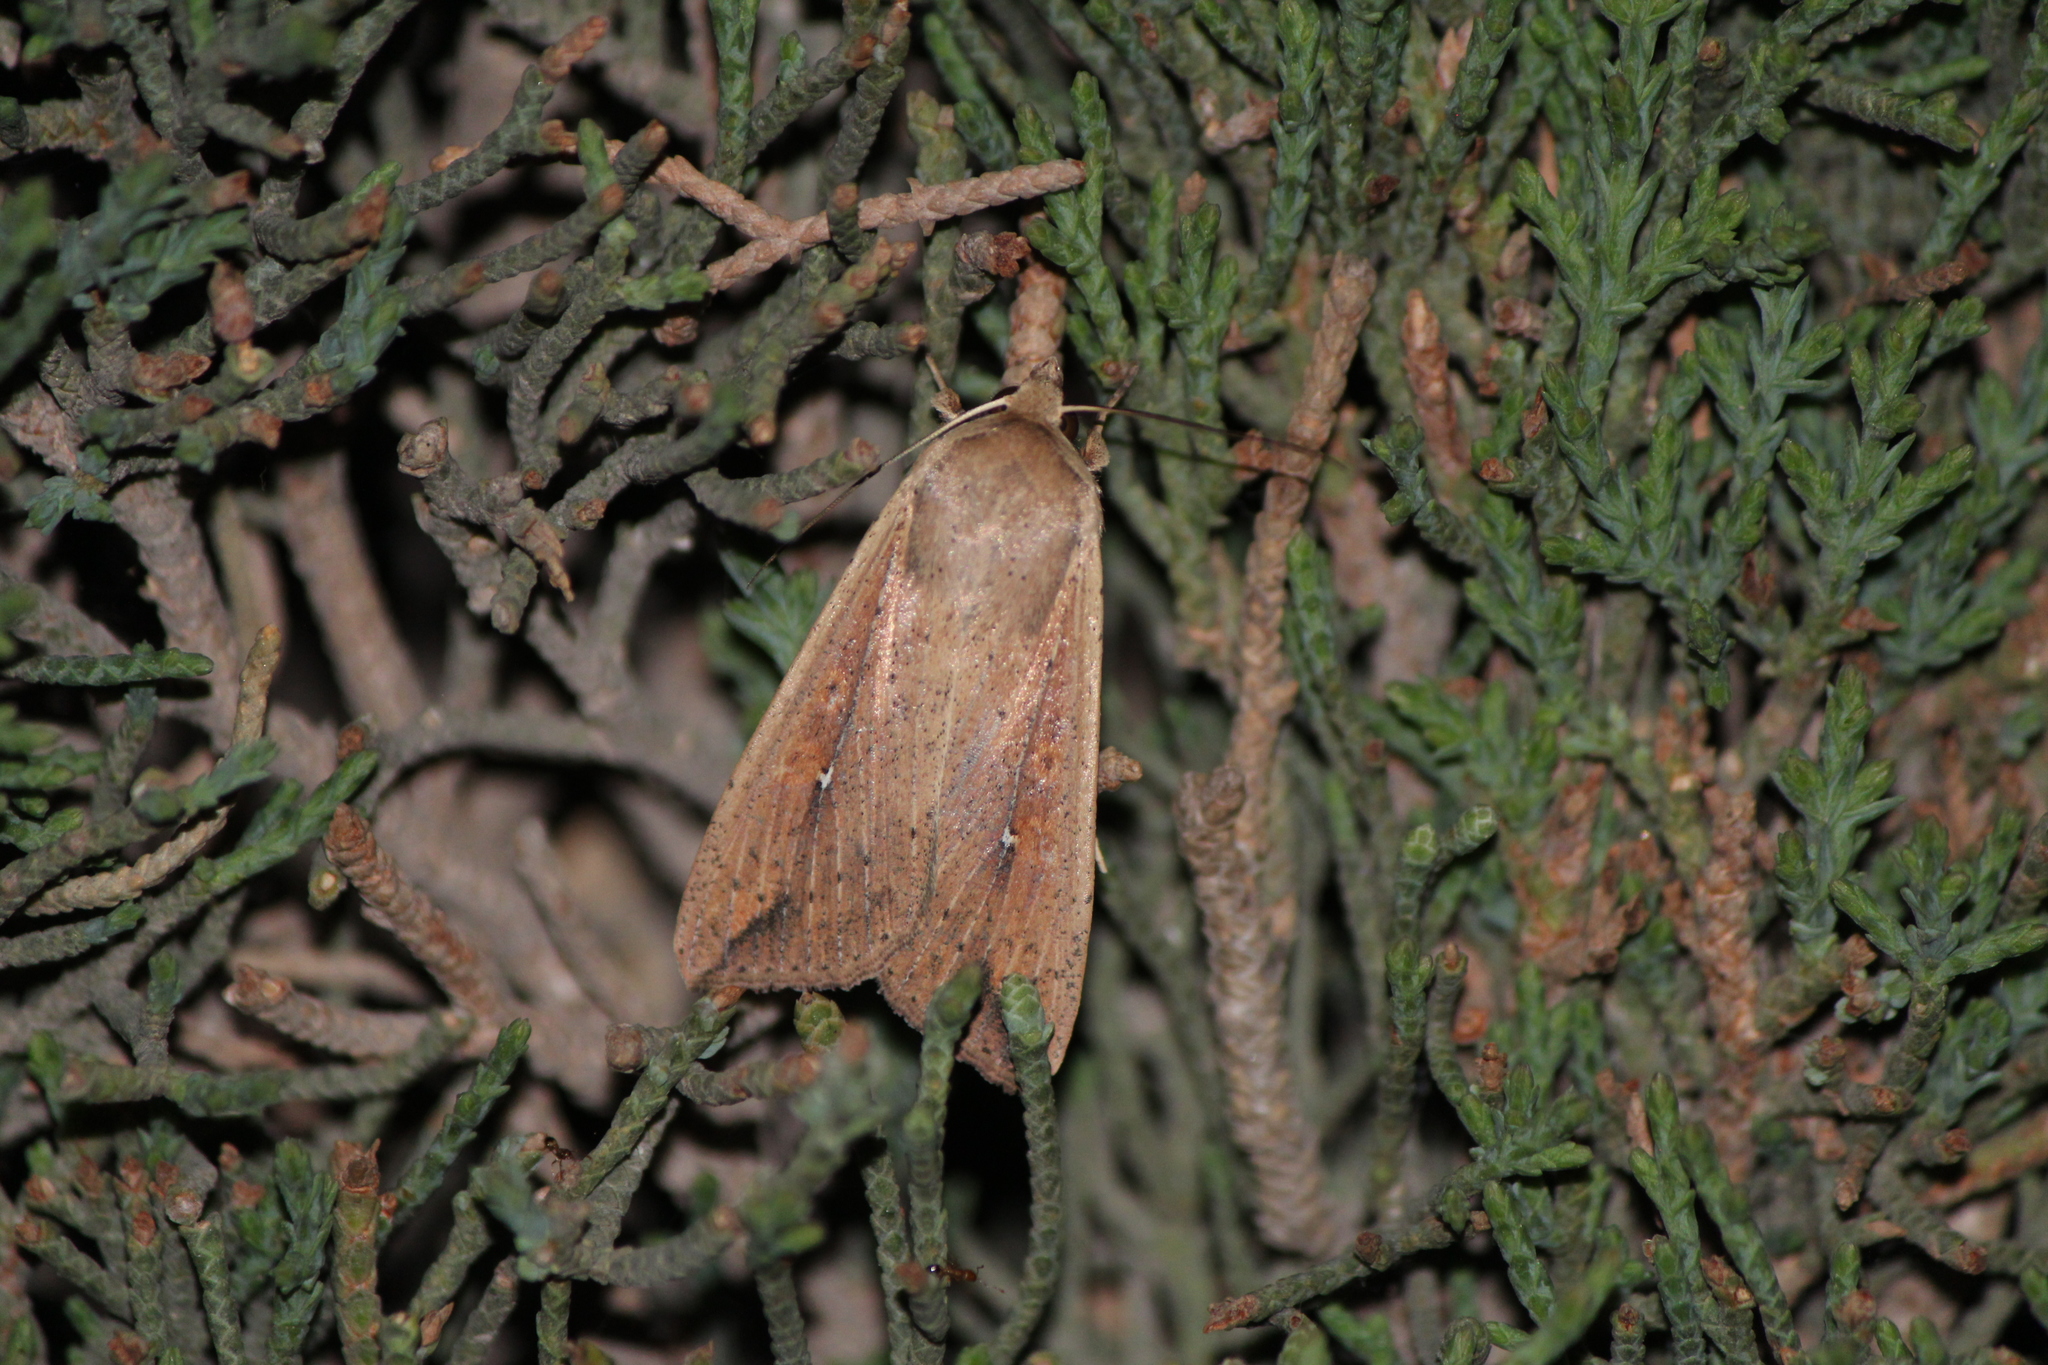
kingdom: Animalia
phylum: Arthropoda
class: Insecta
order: Lepidoptera
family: Noctuidae
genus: Mythimna
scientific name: Mythimna unipuncta
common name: White-speck
